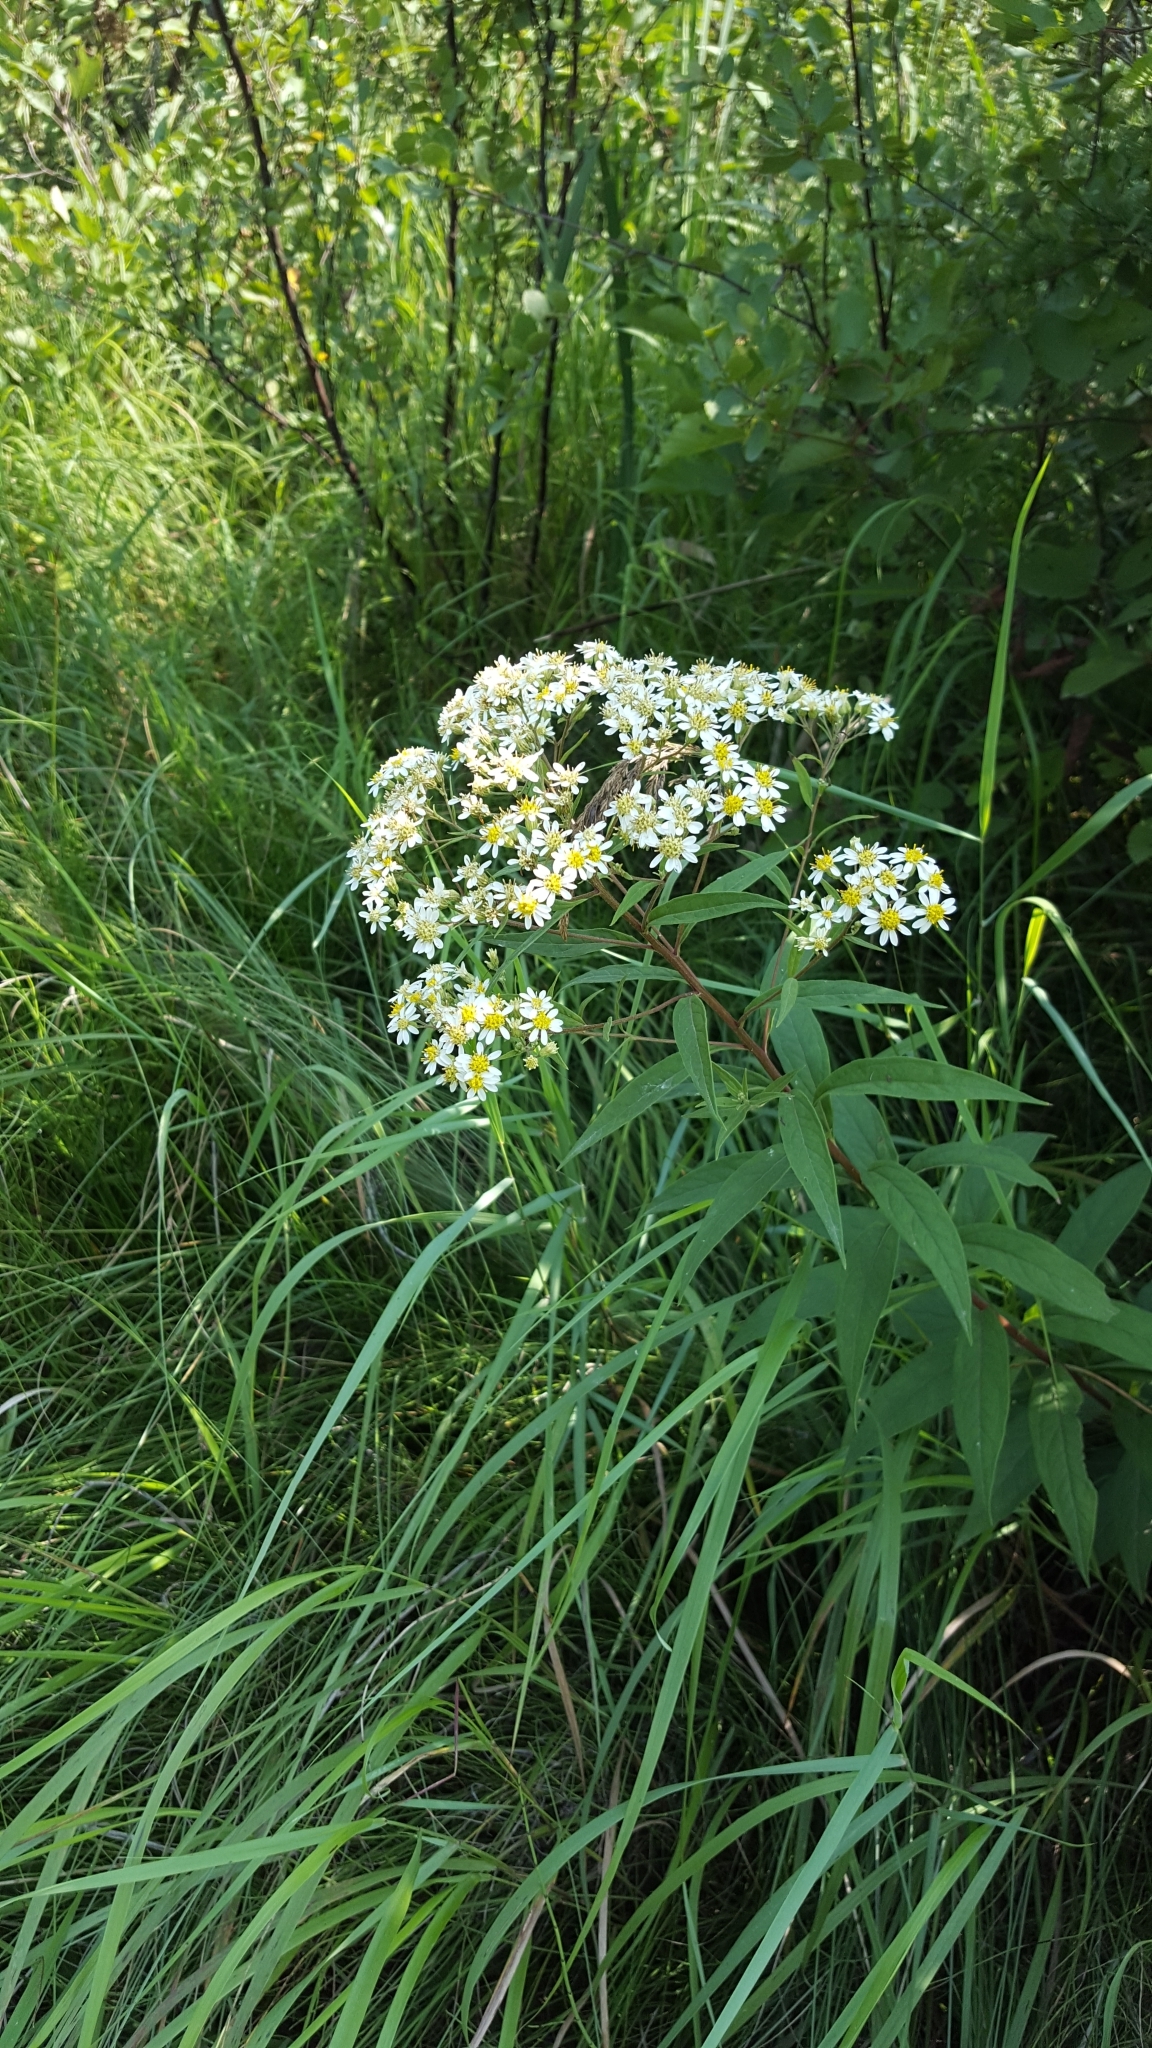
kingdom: Plantae
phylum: Tracheophyta
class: Magnoliopsida
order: Asterales
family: Asteraceae
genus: Doellingeria
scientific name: Doellingeria umbellata
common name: Flat-top white aster
